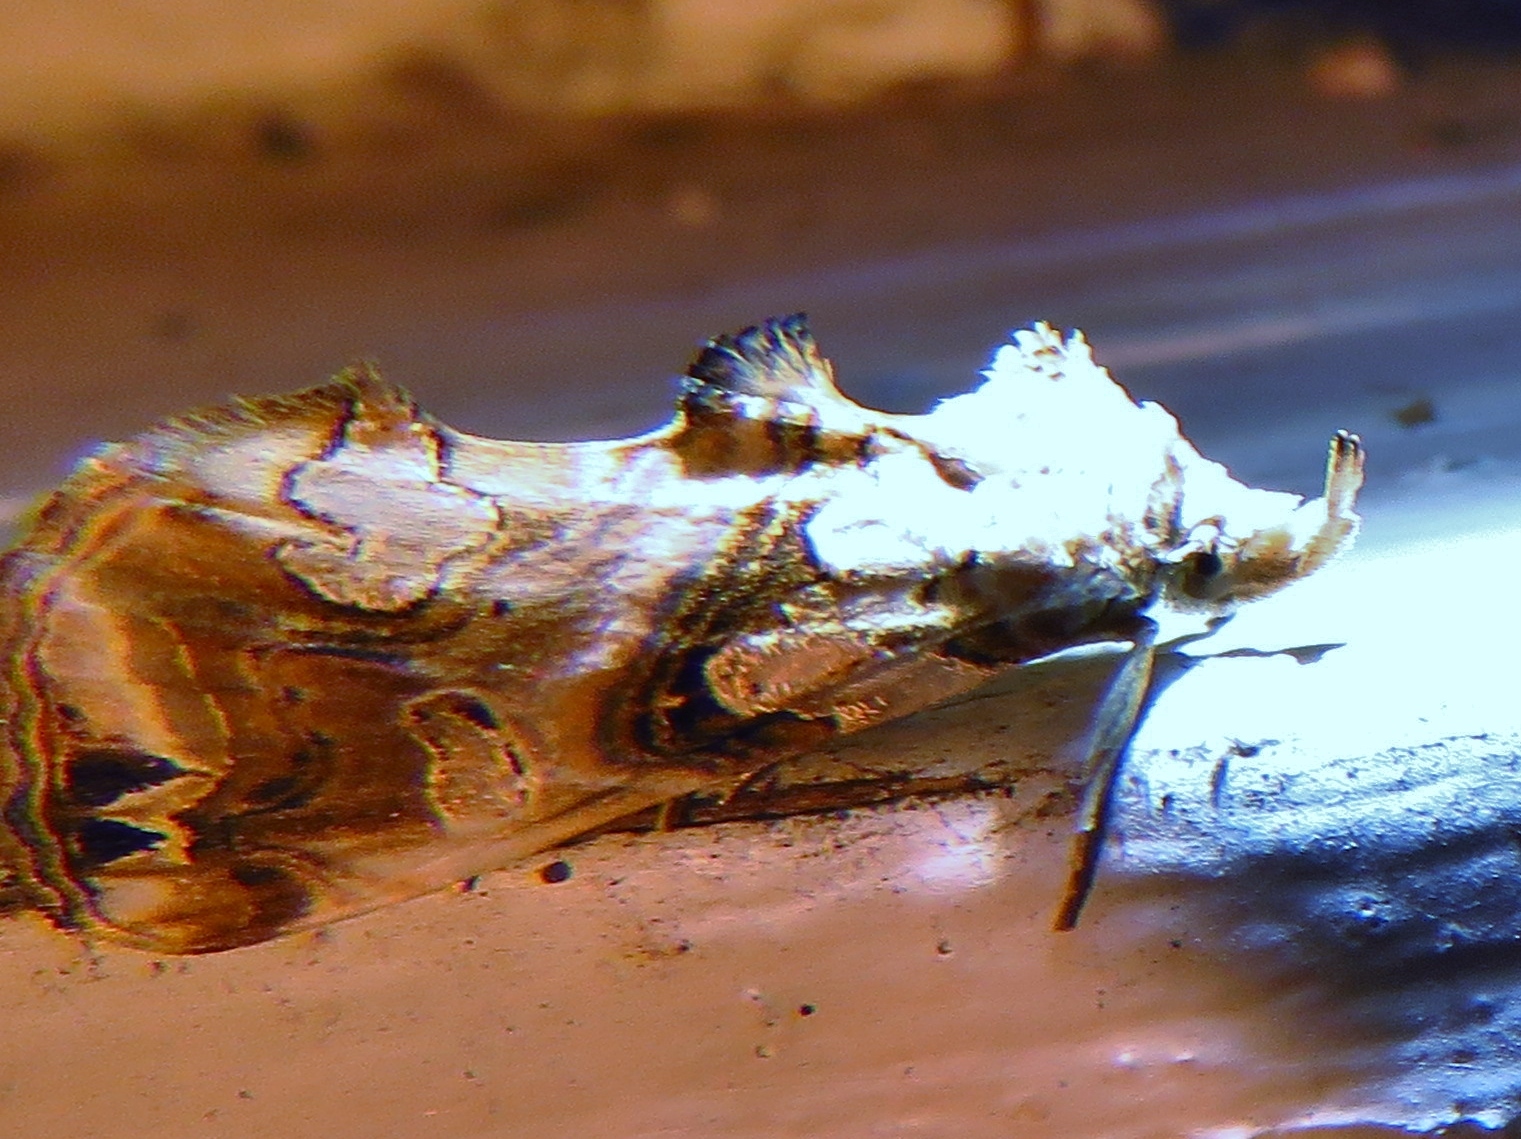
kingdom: Animalia
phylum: Arthropoda
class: Insecta
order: Lepidoptera
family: Erebidae
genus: Plusiodonta
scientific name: Plusiodonta compressipalpis
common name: Moonseed moth
